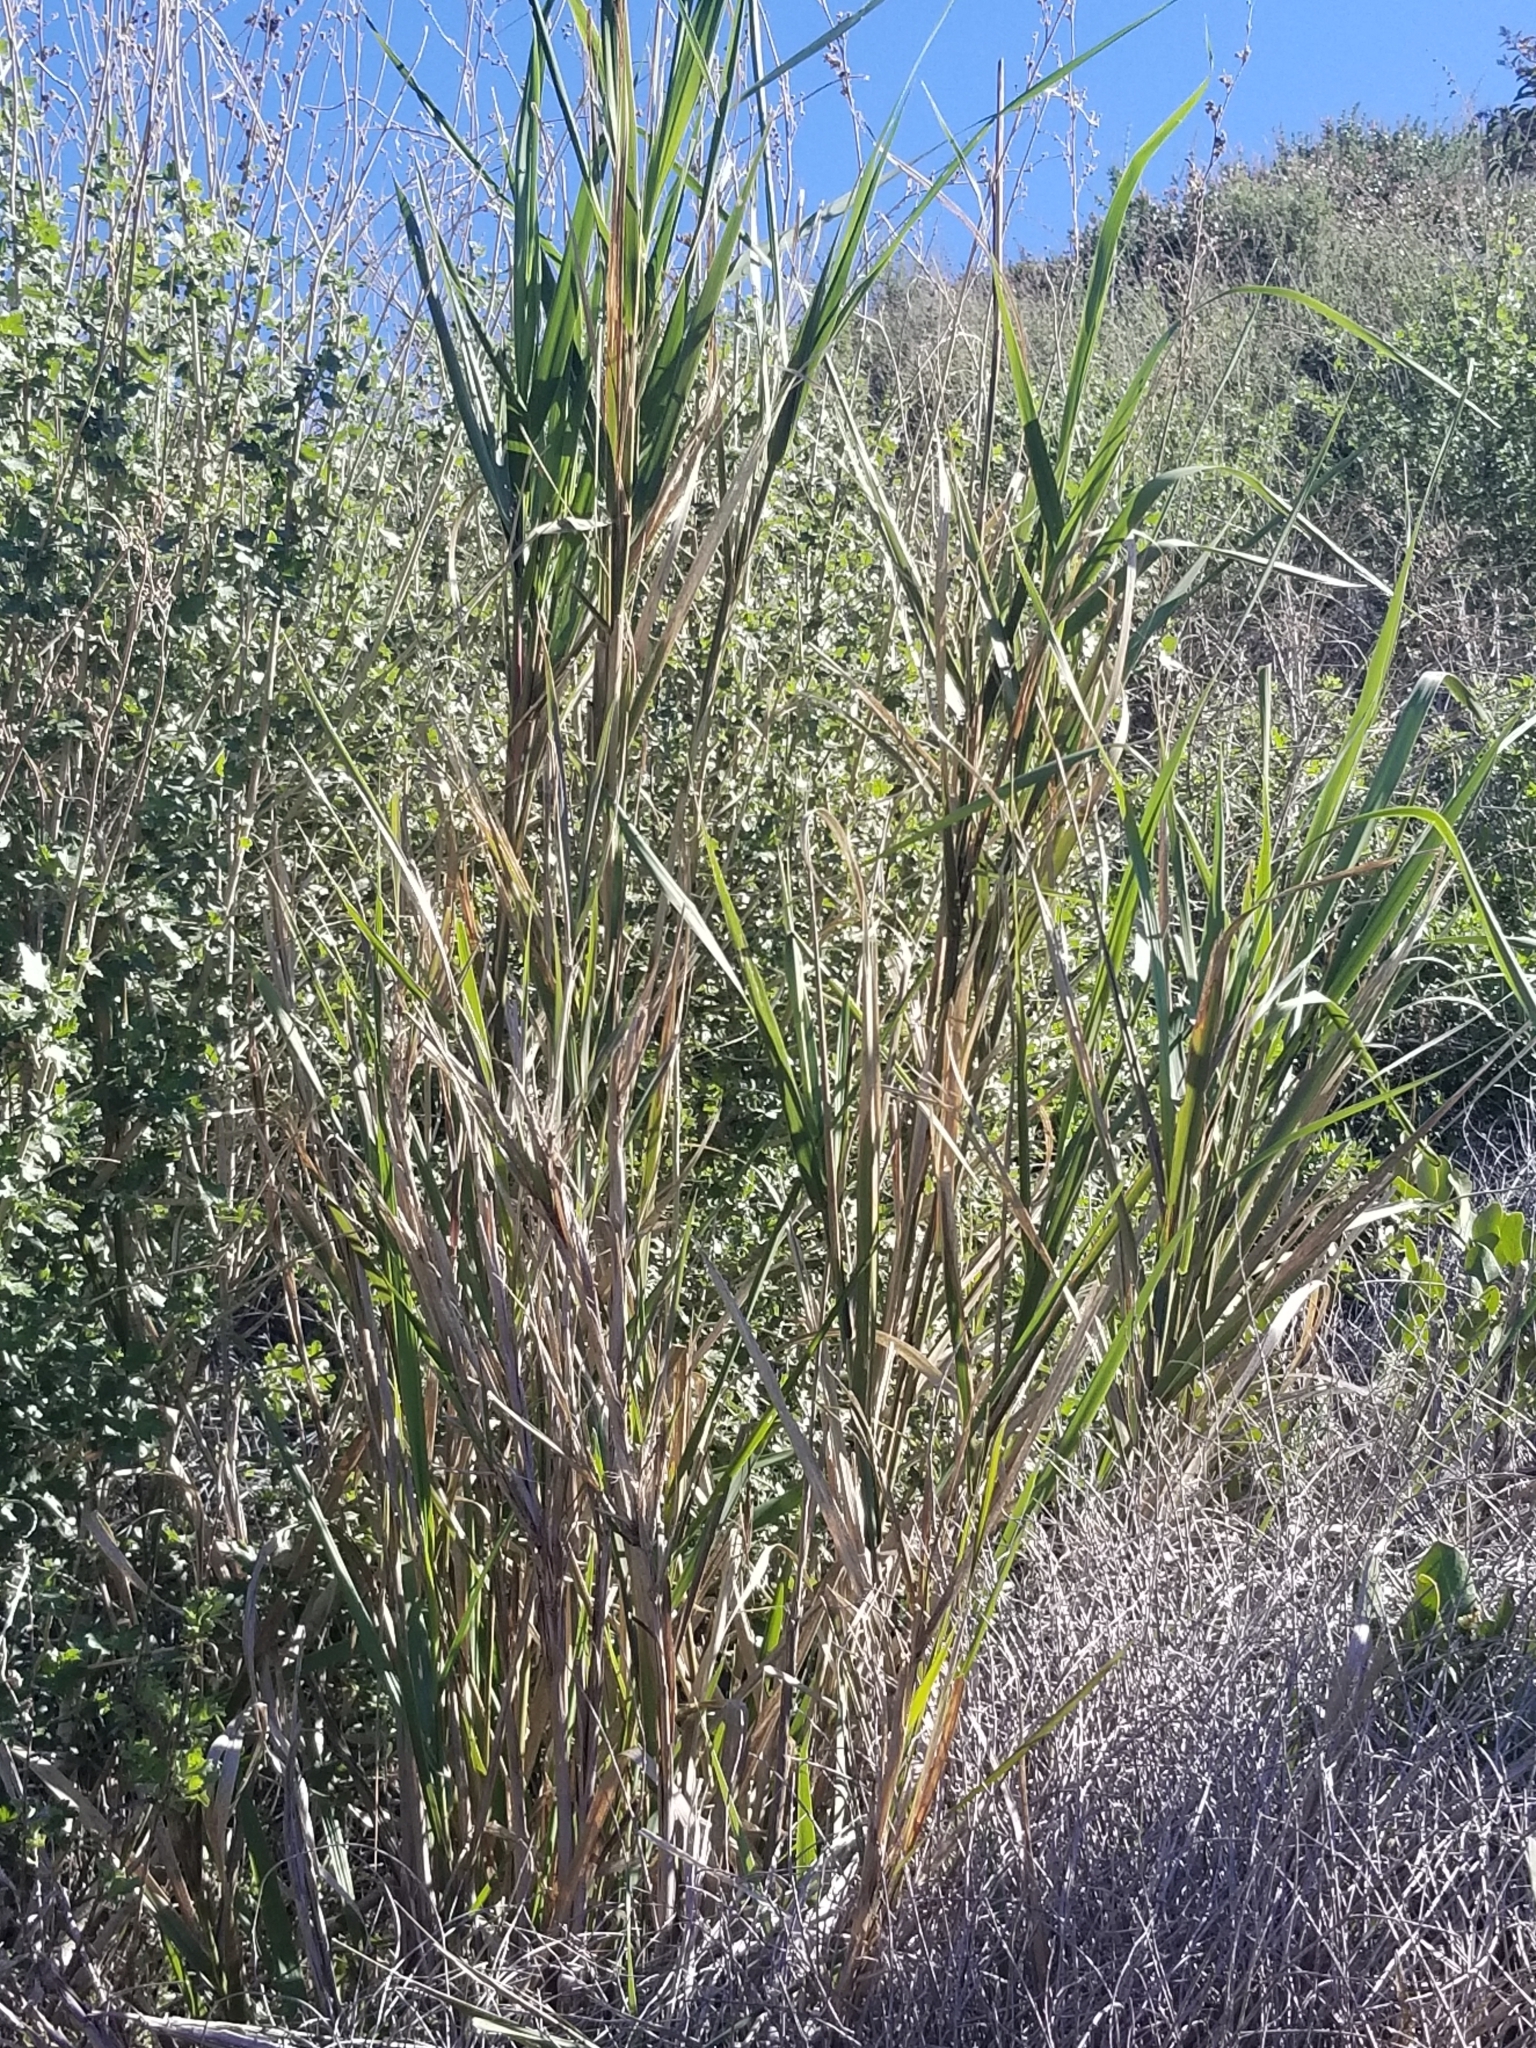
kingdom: Plantae
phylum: Tracheophyta
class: Liliopsida
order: Poales
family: Poaceae
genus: Leymus
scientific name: Leymus condensatus
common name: Giant wild rye
